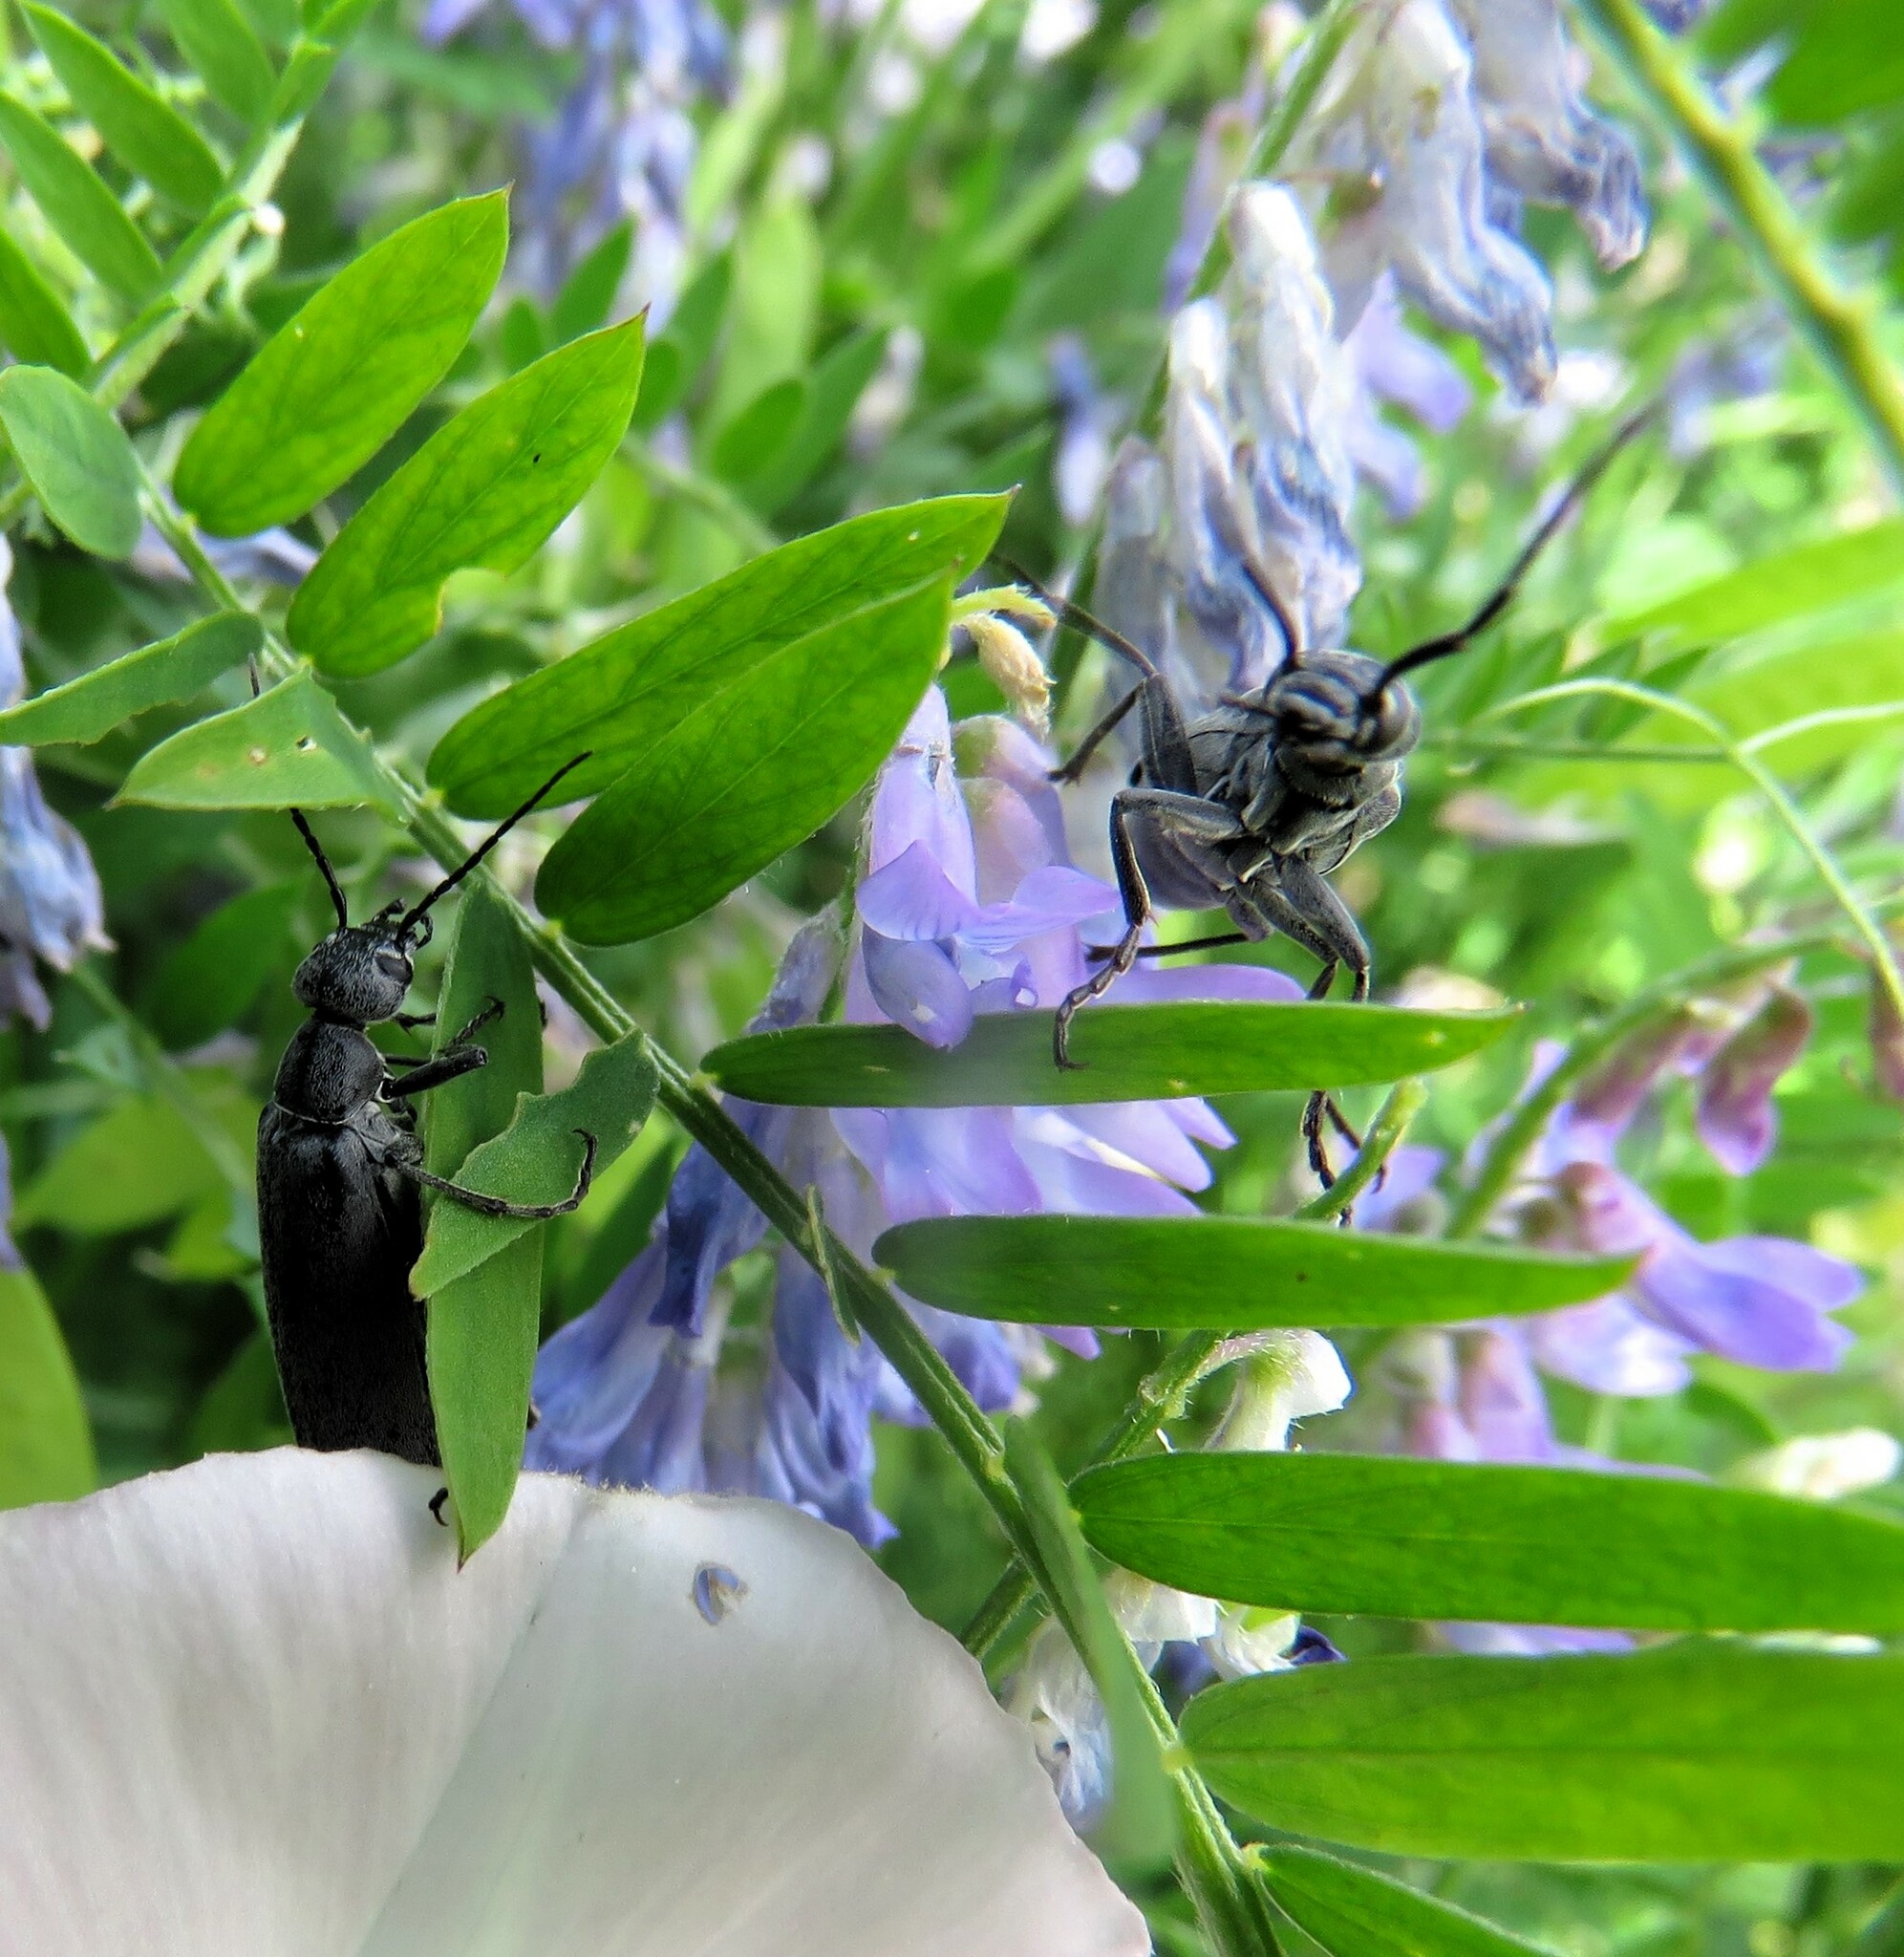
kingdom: Animalia
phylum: Arthropoda
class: Insecta
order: Coleoptera
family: Meloidae
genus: Epicauta
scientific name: Epicauta murina
